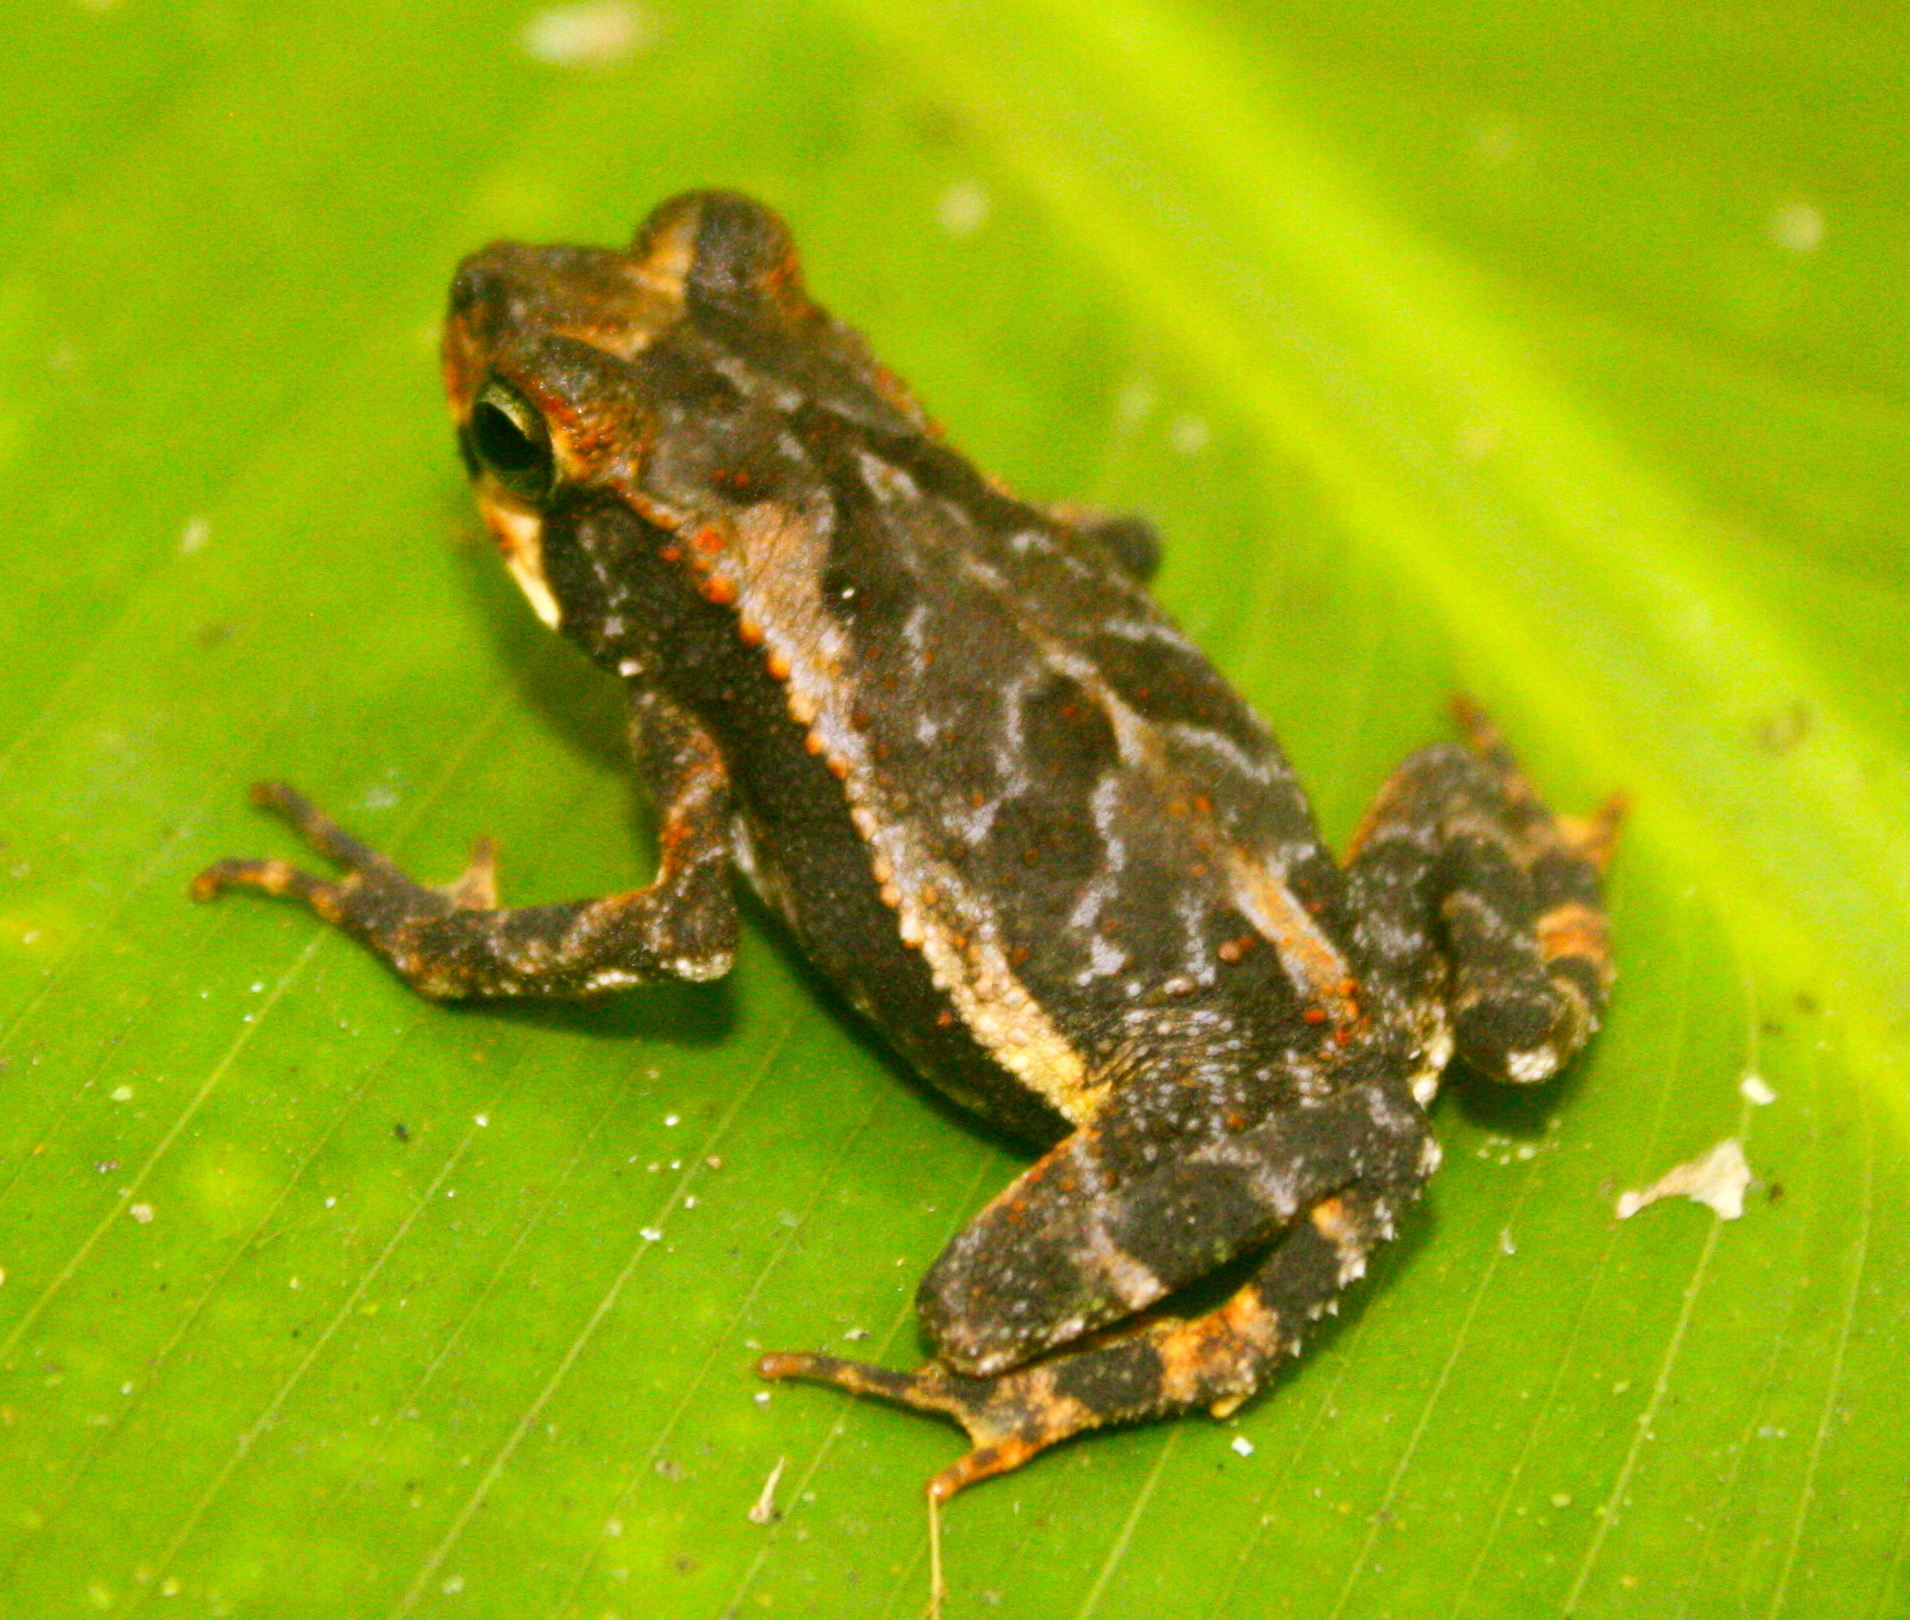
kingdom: Animalia
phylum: Chordata
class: Amphibia
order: Anura
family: Bufonidae
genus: Incilius
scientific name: Incilius melanochlorus
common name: Dark green toad
